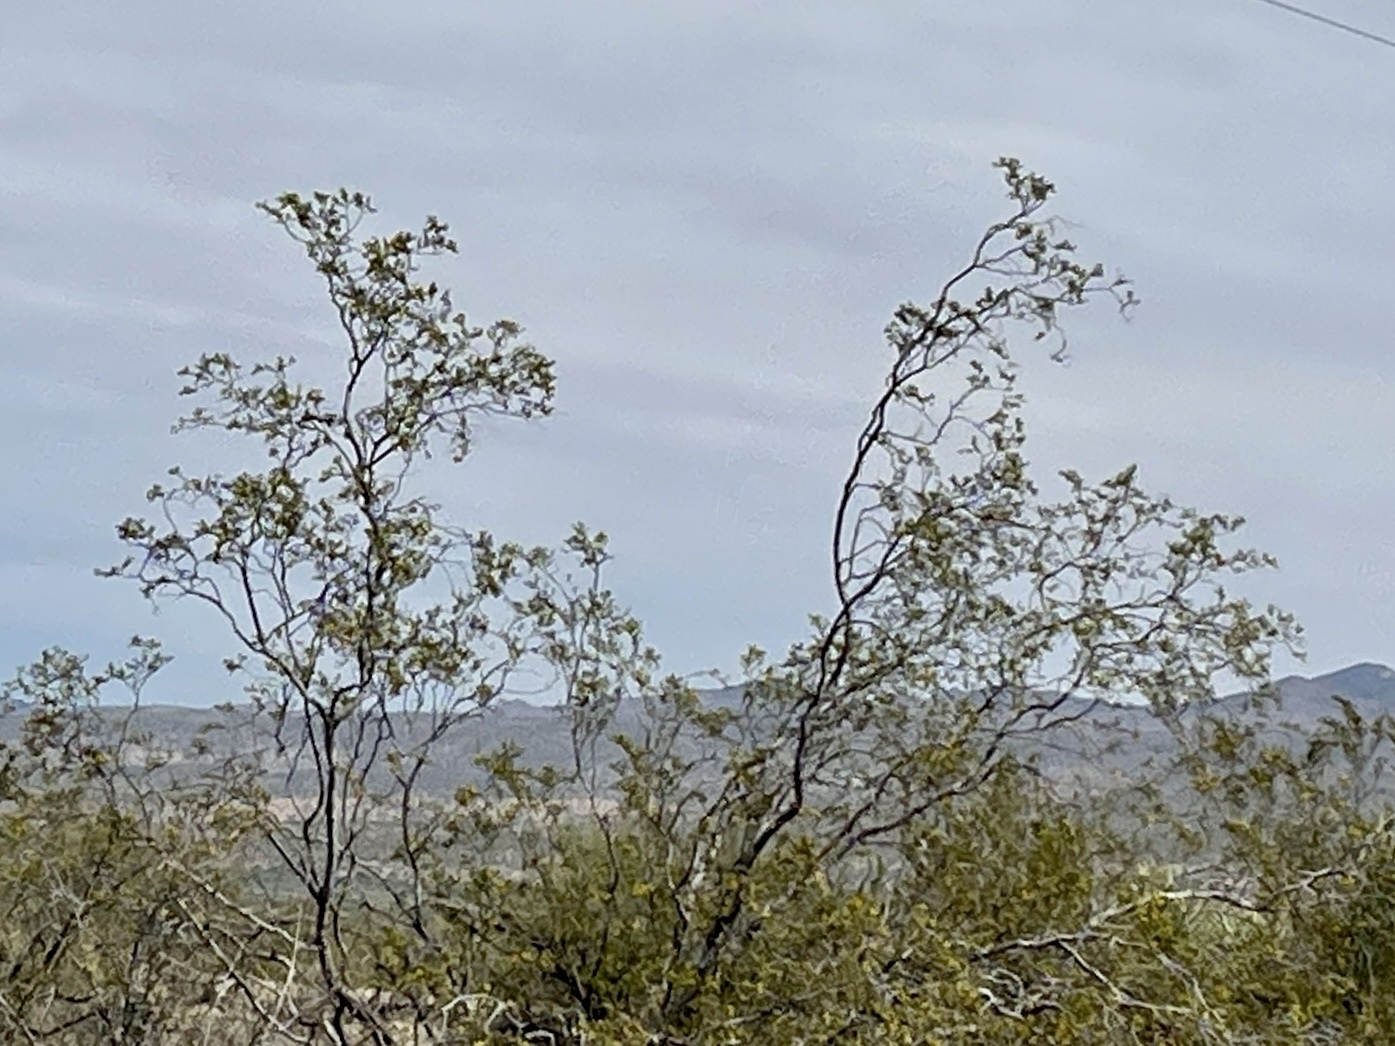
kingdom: Plantae
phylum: Tracheophyta
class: Magnoliopsida
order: Zygophyllales
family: Zygophyllaceae
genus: Larrea
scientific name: Larrea tridentata
